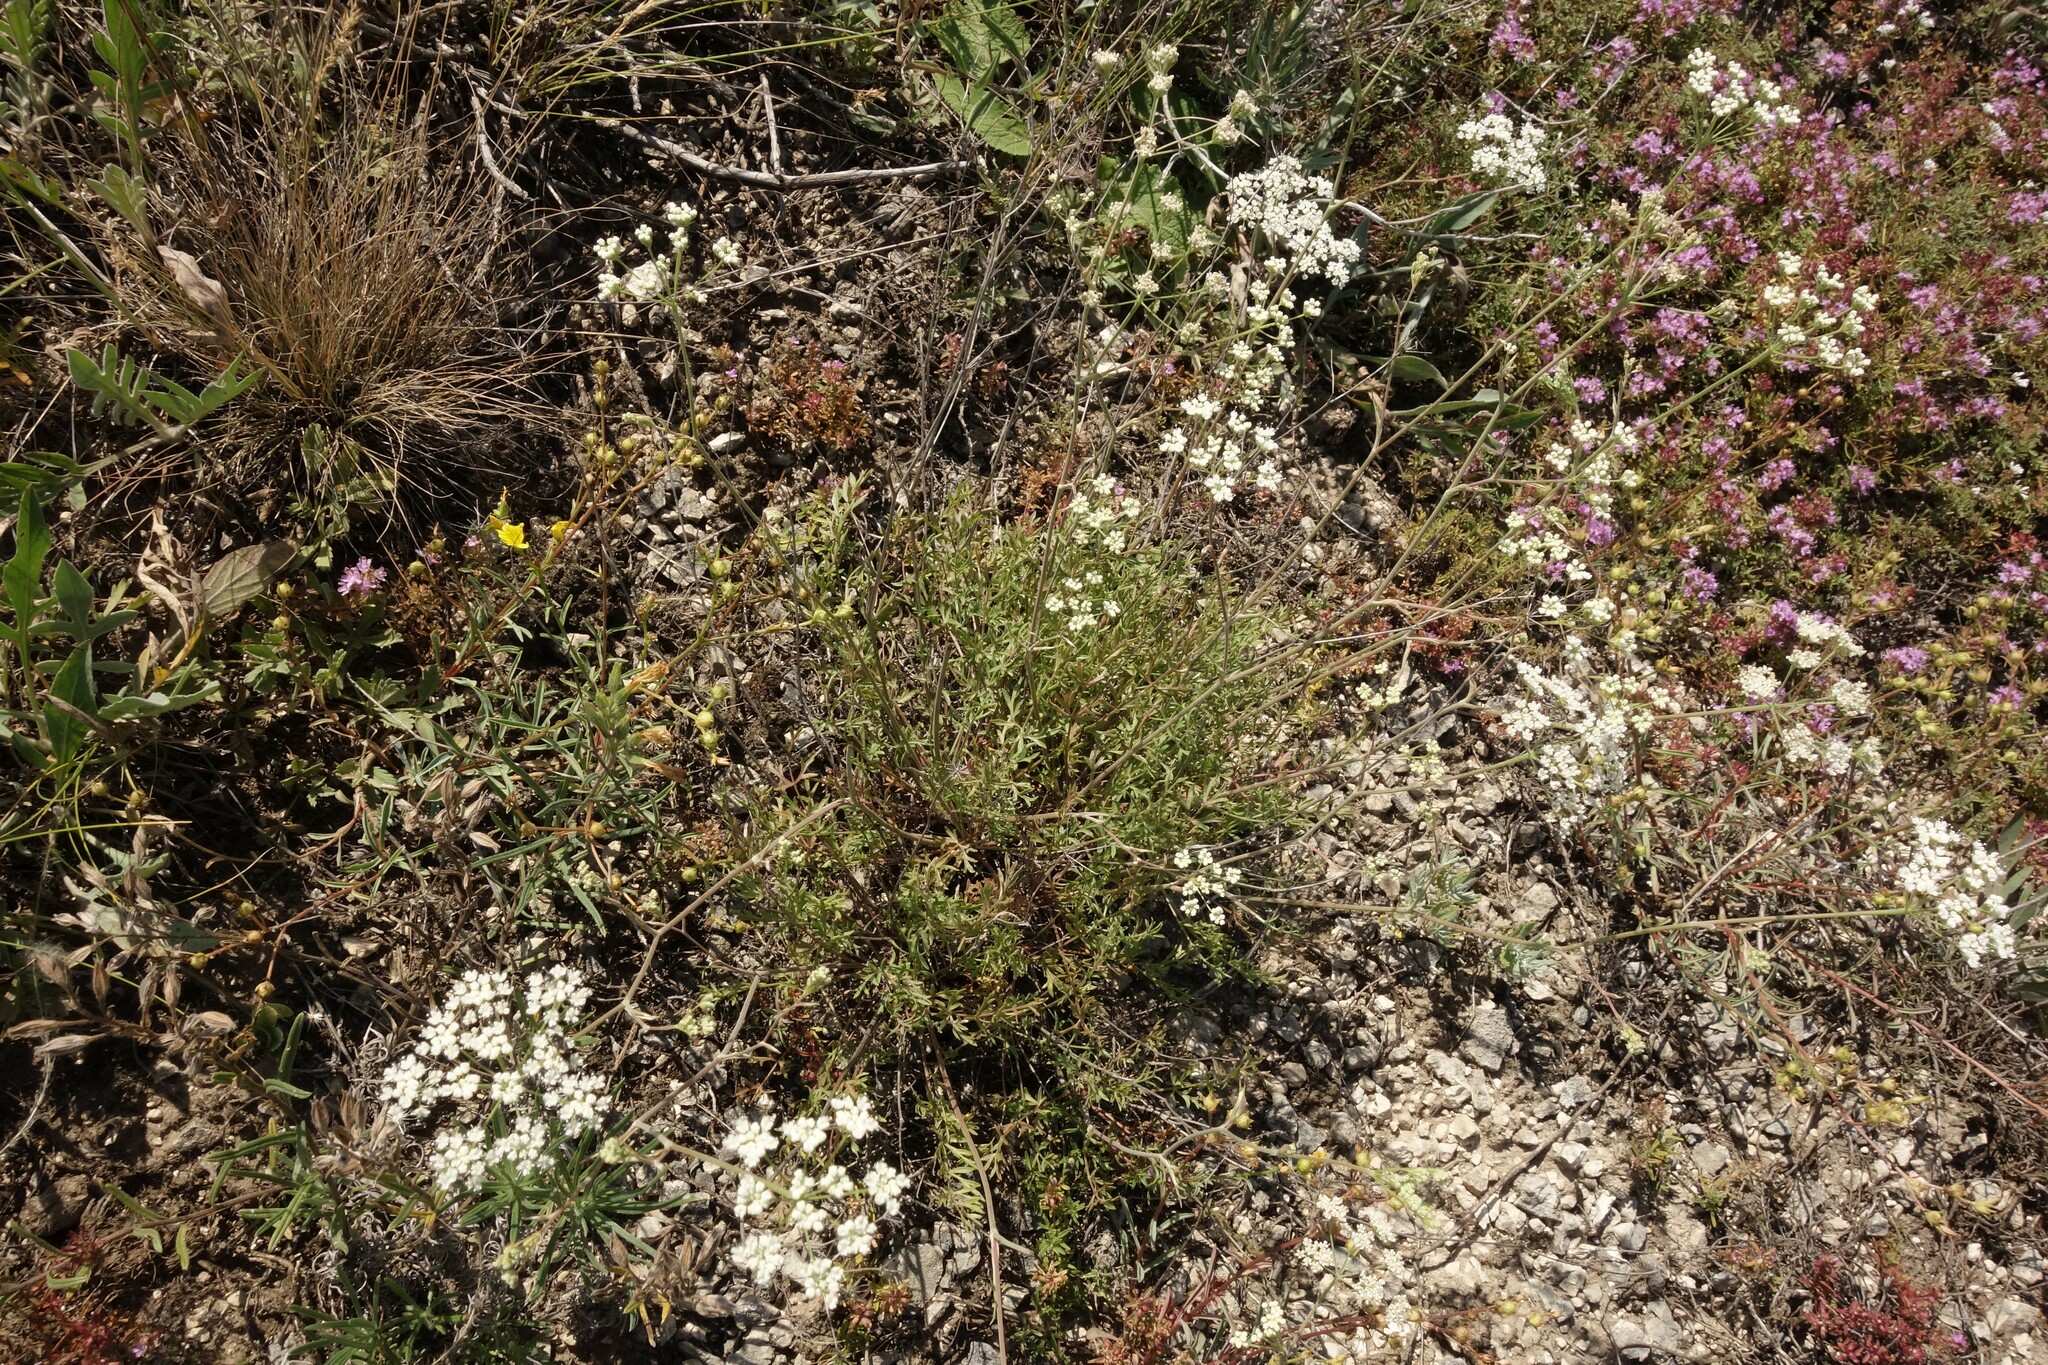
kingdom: Plantae
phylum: Tracheophyta
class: Magnoliopsida
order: Apiales
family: Apiaceae
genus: Pimpinella
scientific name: Pimpinella tragium
